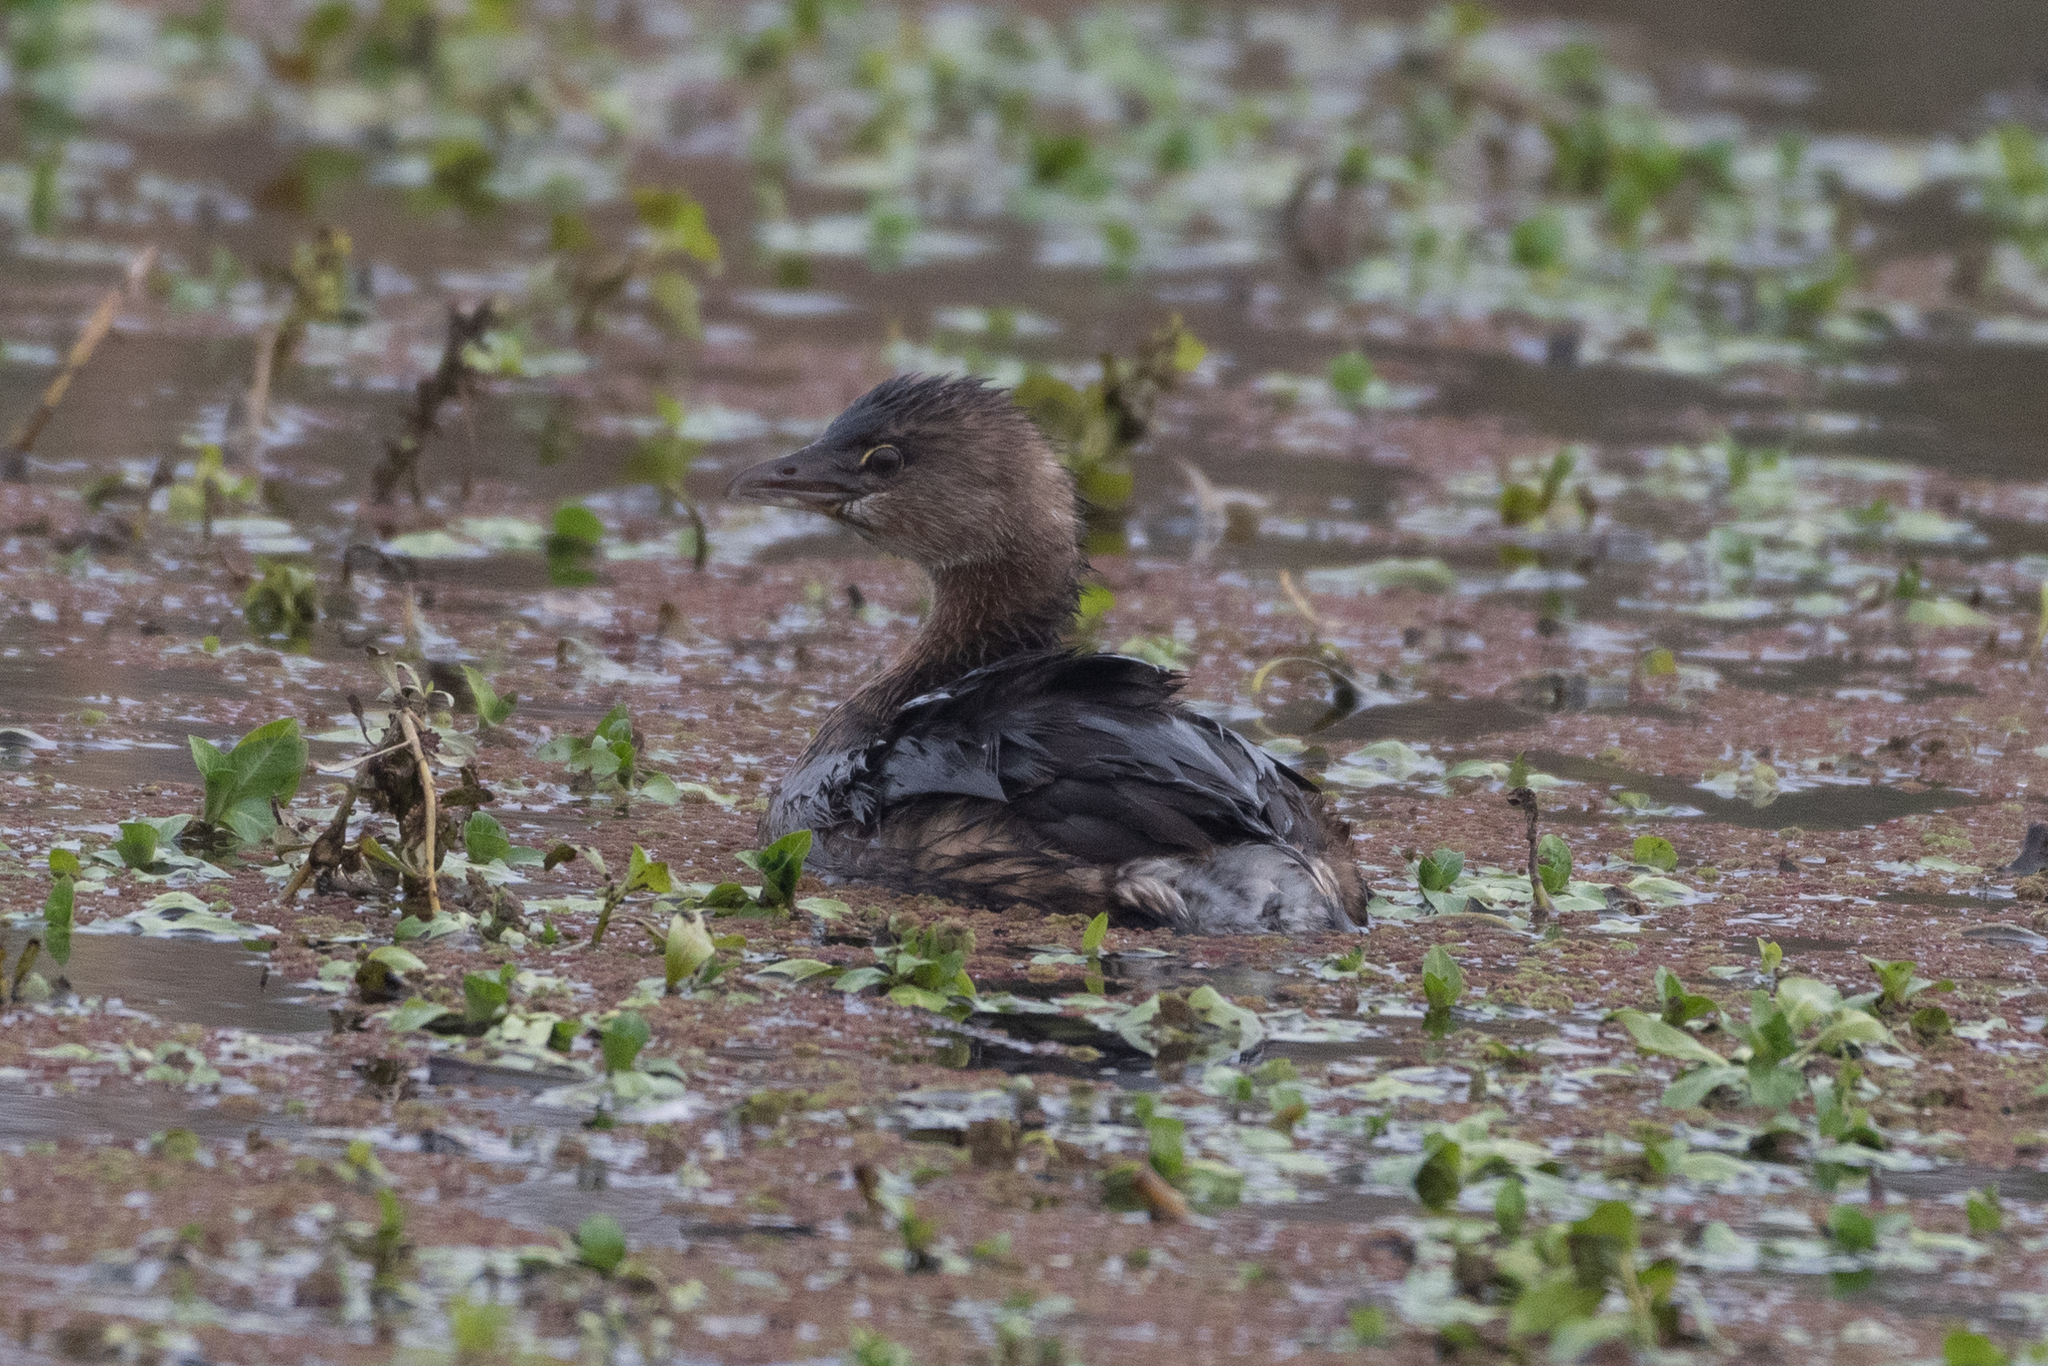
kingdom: Animalia
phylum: Chordata
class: Aves
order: Podicipediformes
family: Podicipedidae
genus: Podilymbus
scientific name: Podilymbus podiceps
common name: Pied-billed grebe
